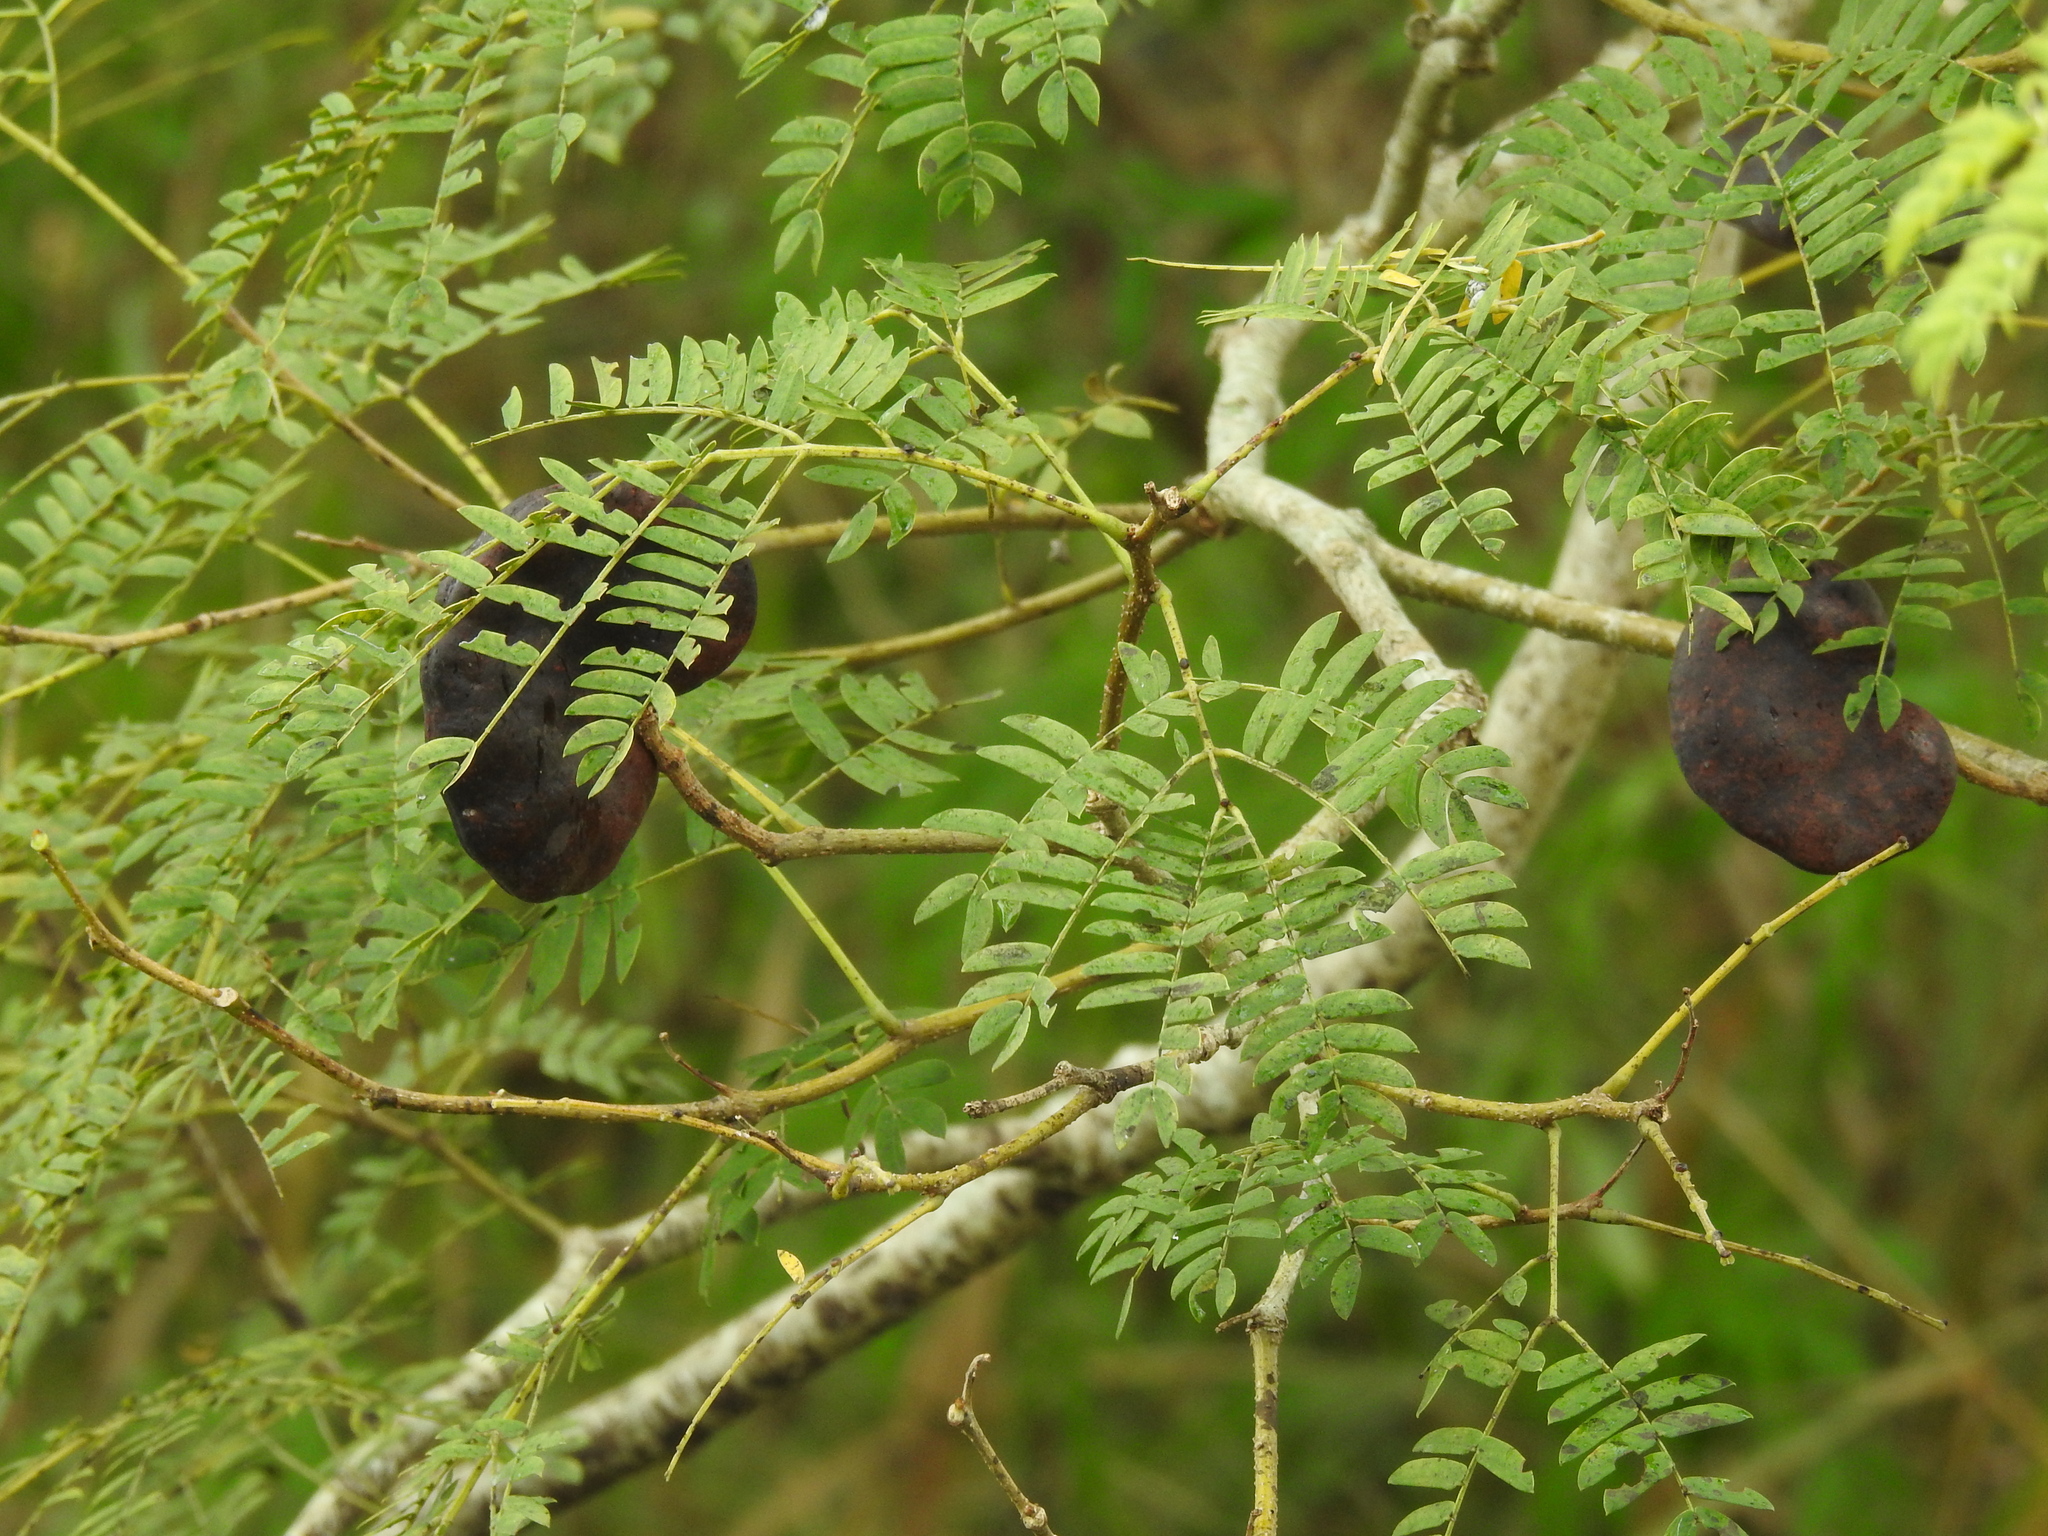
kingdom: Plantae
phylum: Tracheophyta
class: Magnoliopsida
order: Fabales
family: Fabaceae
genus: Enterolobium
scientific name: Enterolobium contortisiliquum
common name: Pacara earpod tree
